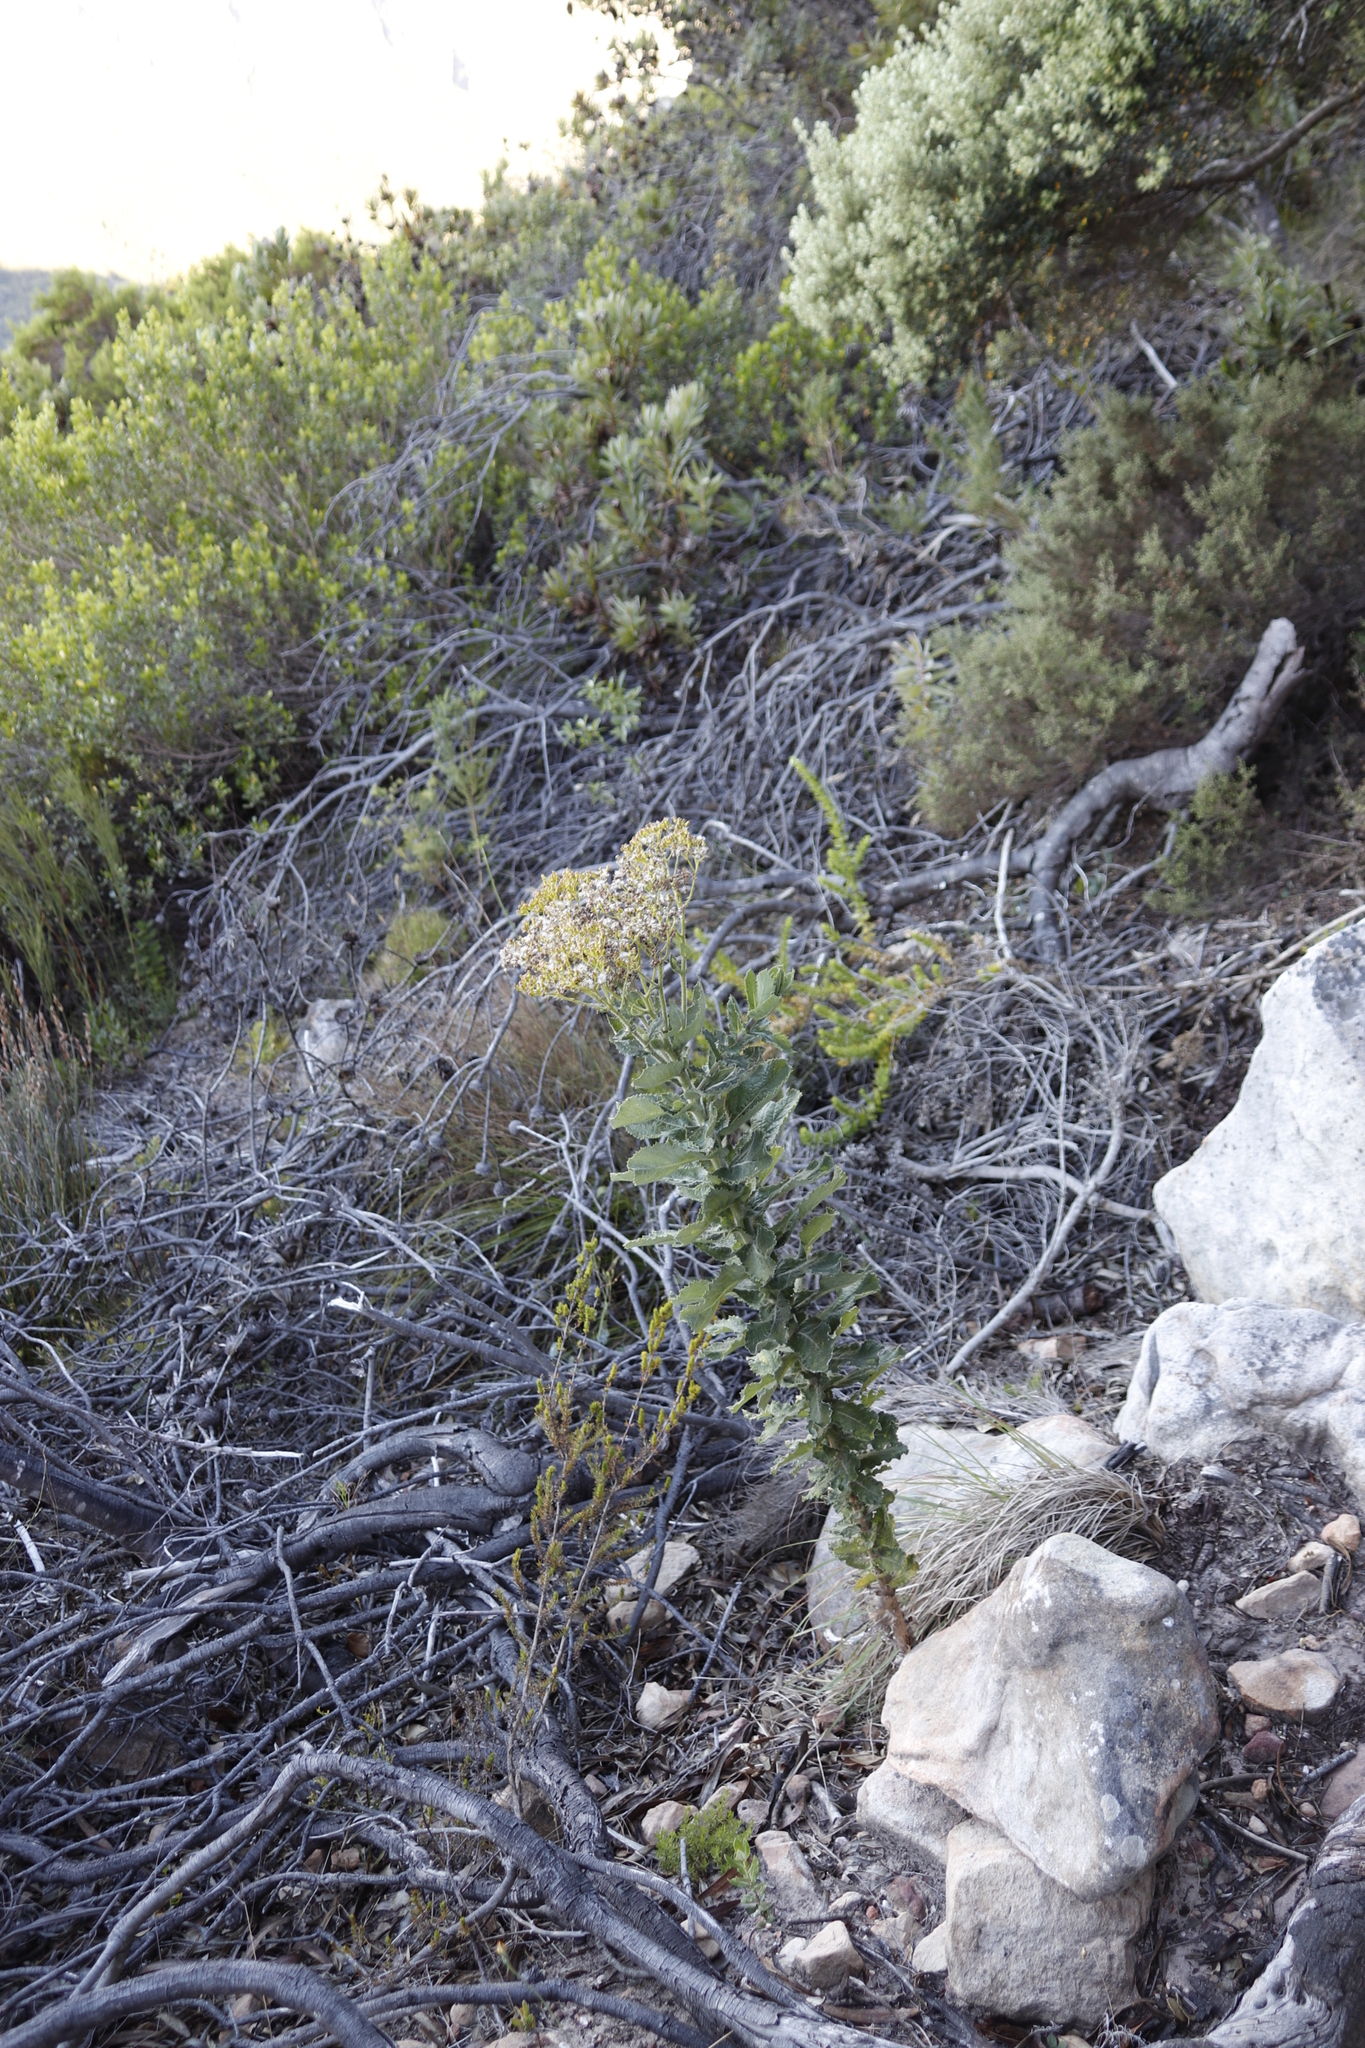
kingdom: Plantae
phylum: Tracheophyta
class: Magnoliopsida
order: Asterales
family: Asteraceae
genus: Senecio
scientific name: Senecio rigidus
